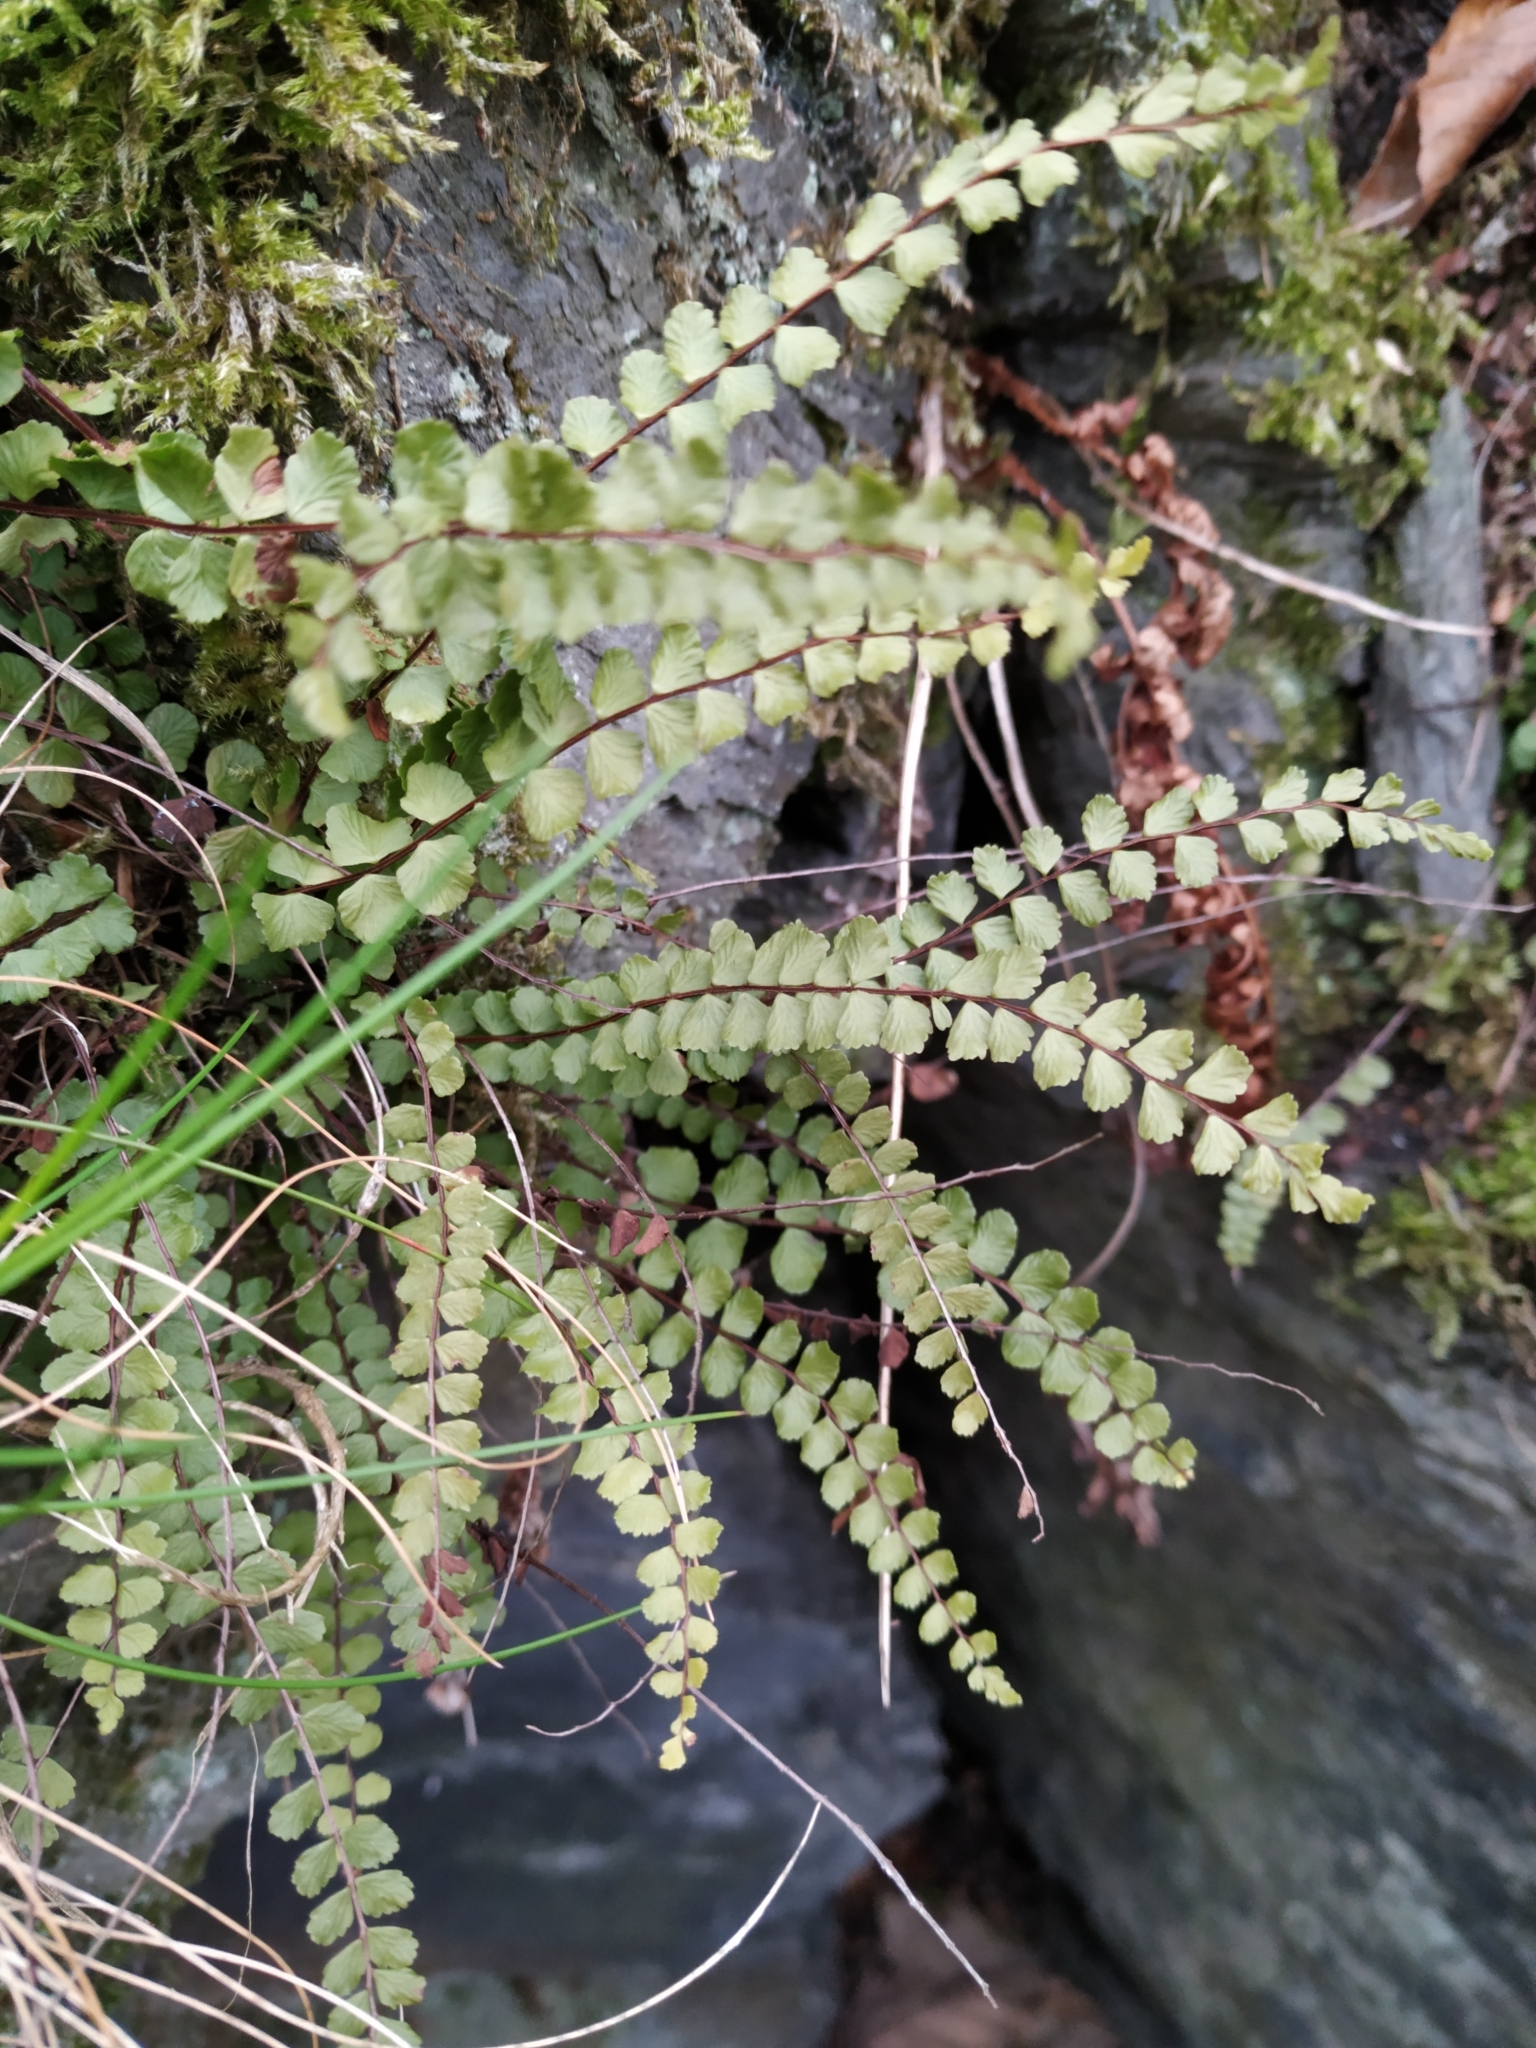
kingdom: Plantae
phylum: Tracheophyta
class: Polypodiopsida
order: Polypodiales
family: Aspleniaceae
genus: Asplenium
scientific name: Asplenium trichomanes
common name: Maidenhair spleenwort
